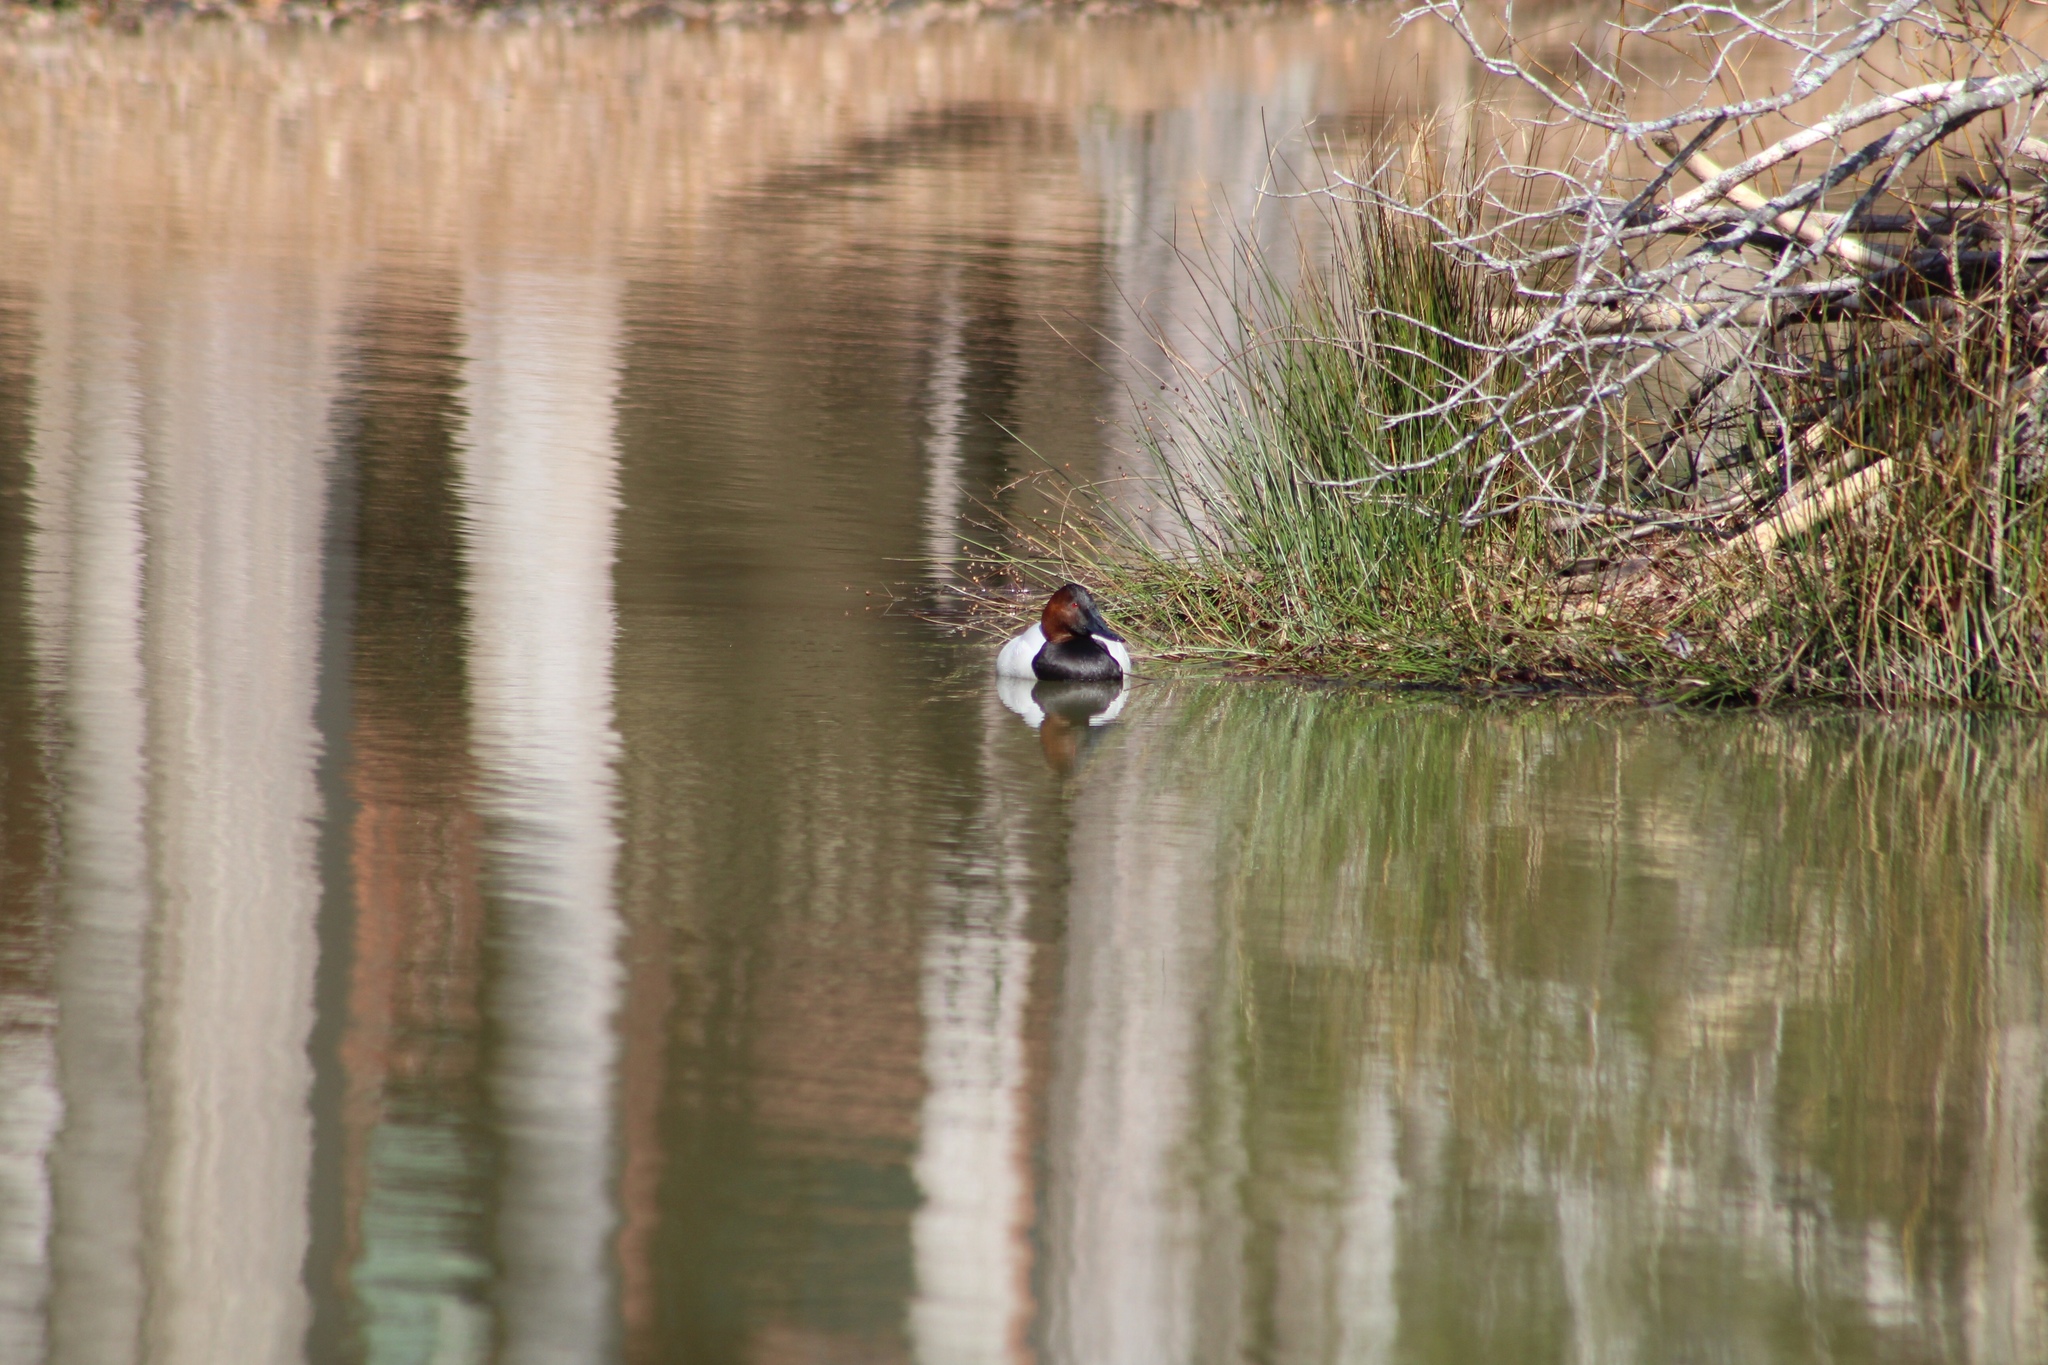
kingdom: Animalia
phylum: Chordata
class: Aves
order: Anseriformes
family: Anatidae
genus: Aythya
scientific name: Aythya valisineria
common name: Canvasback
